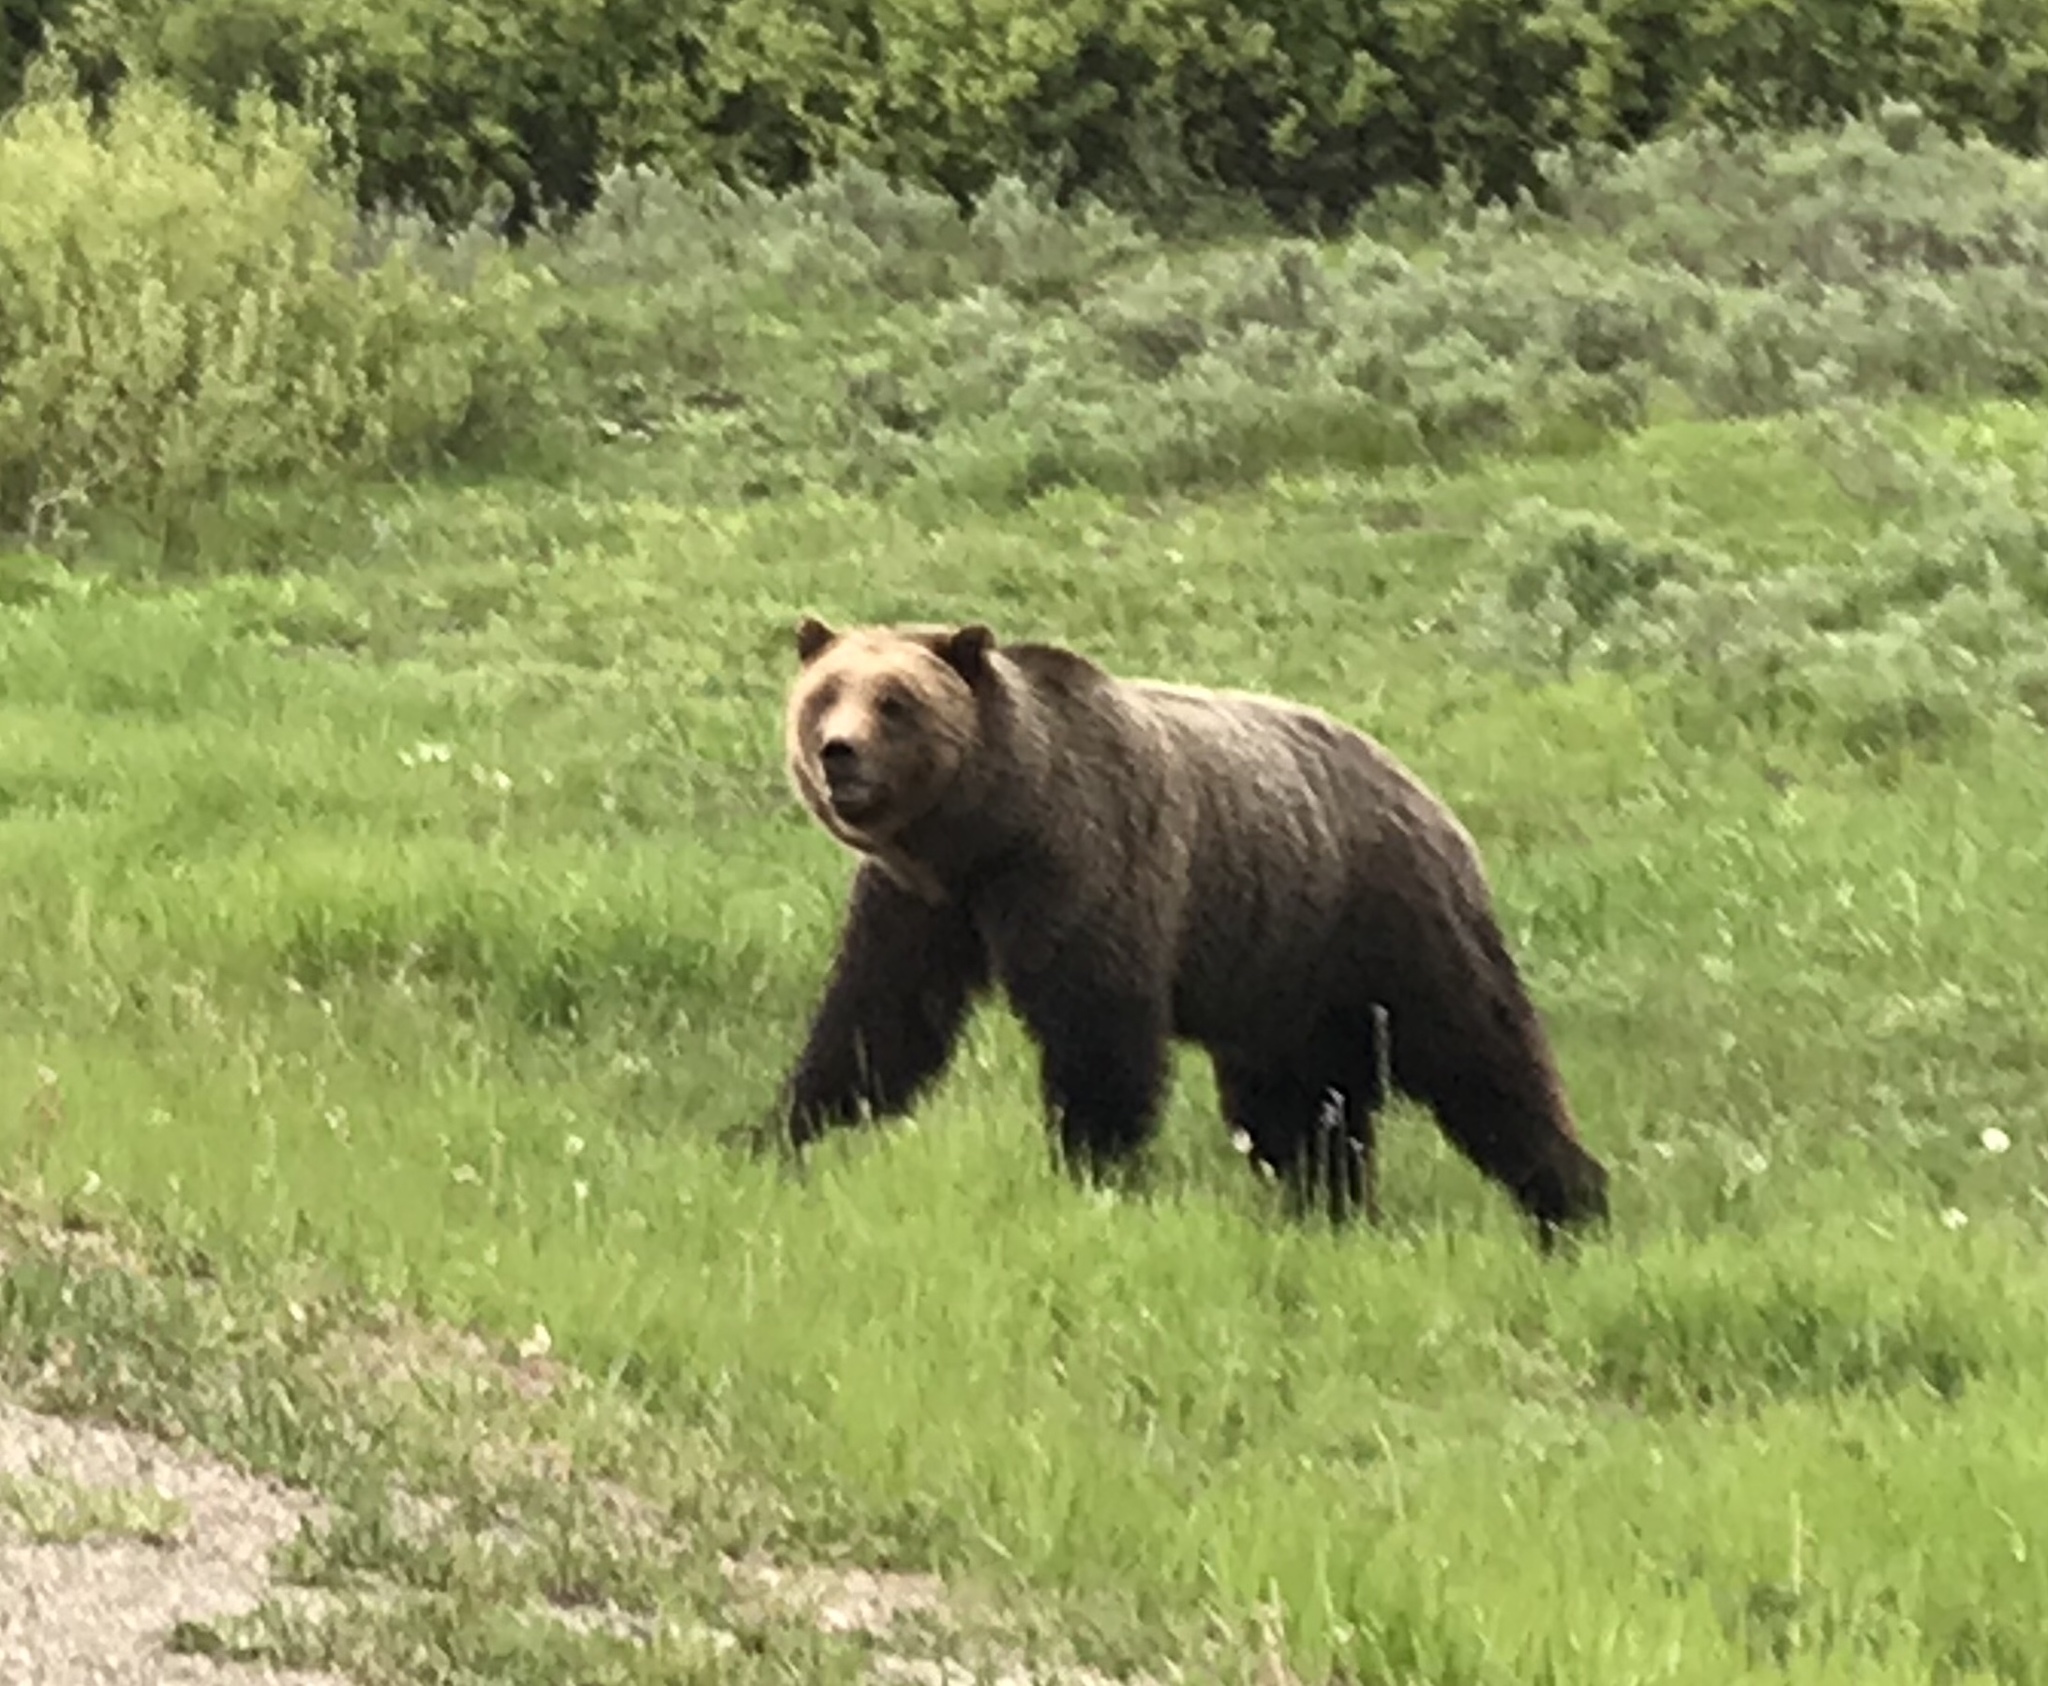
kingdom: Animalia
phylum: Chordata
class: Mammalia
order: Carnivora
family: Ursidae
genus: Ursus
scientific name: Ursus arctos
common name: Brown bear
